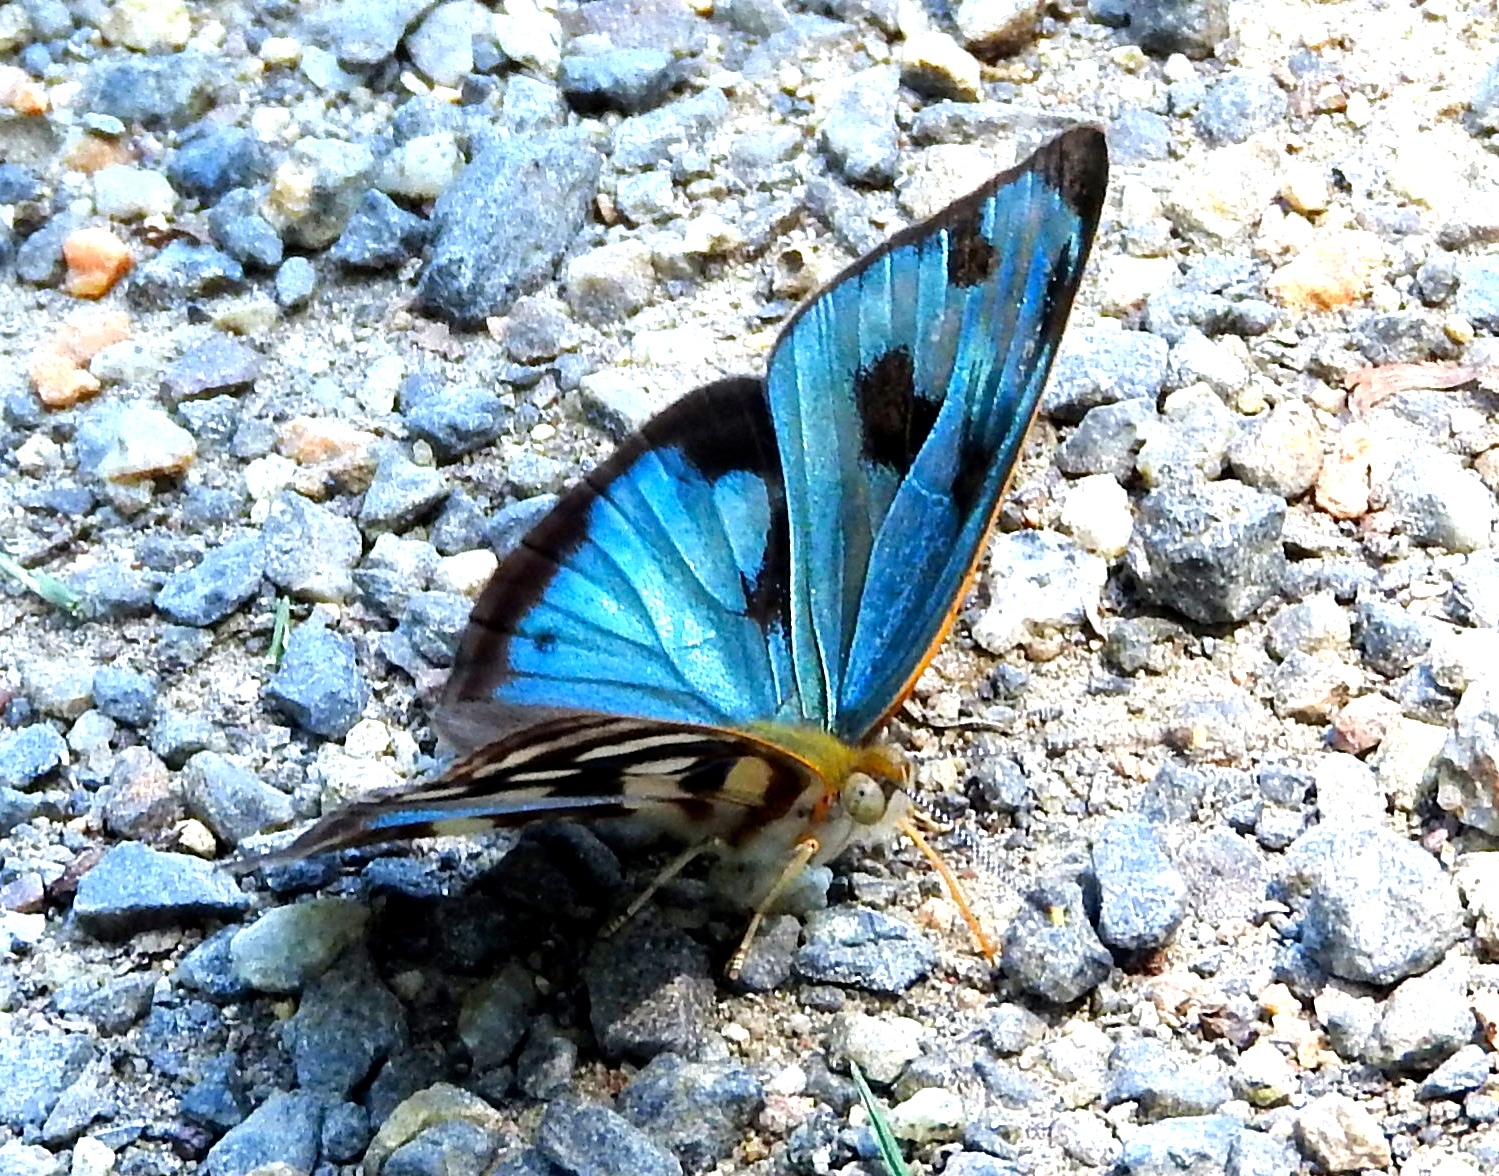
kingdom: Animalia
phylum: Arthropoda
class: Insecta
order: Lepidoptera
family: Nymphalidae
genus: Dynamine
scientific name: Dynamine mylitta
